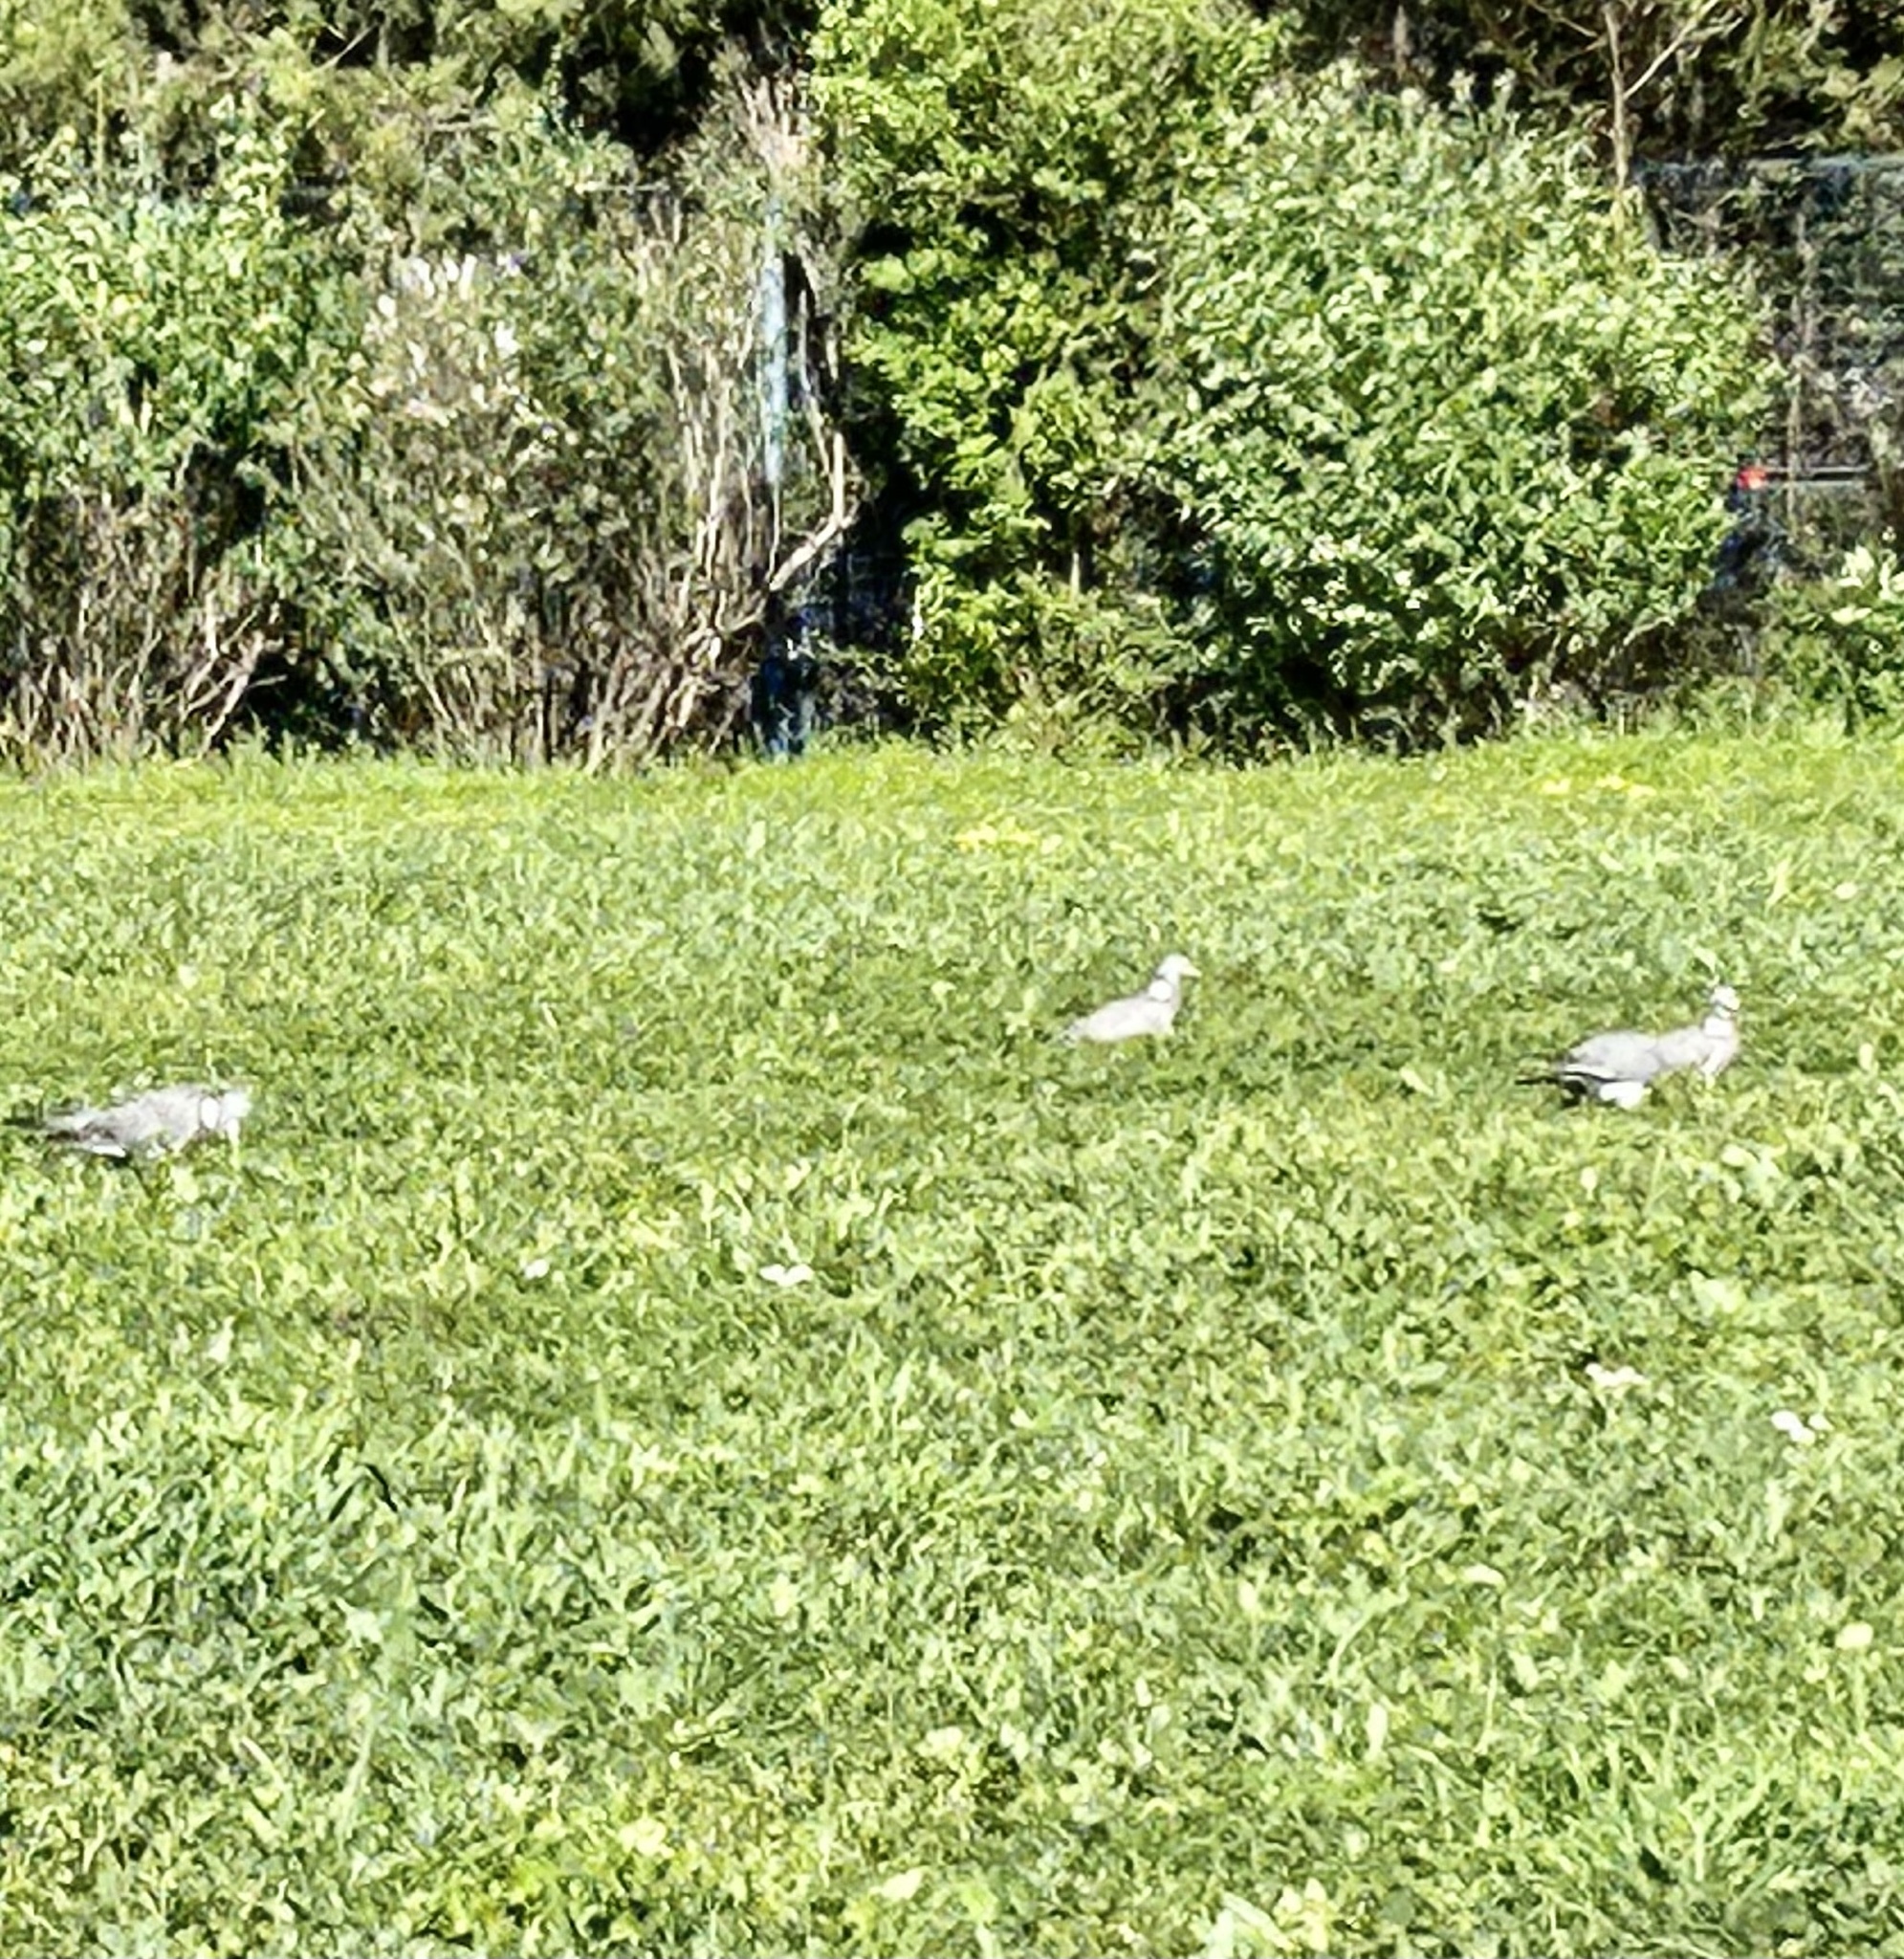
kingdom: Animalia
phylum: Chordata
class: Aves
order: Columbiformes
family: Columbidae
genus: Columba
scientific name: Columba palumbus
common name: Common wood pigeon
